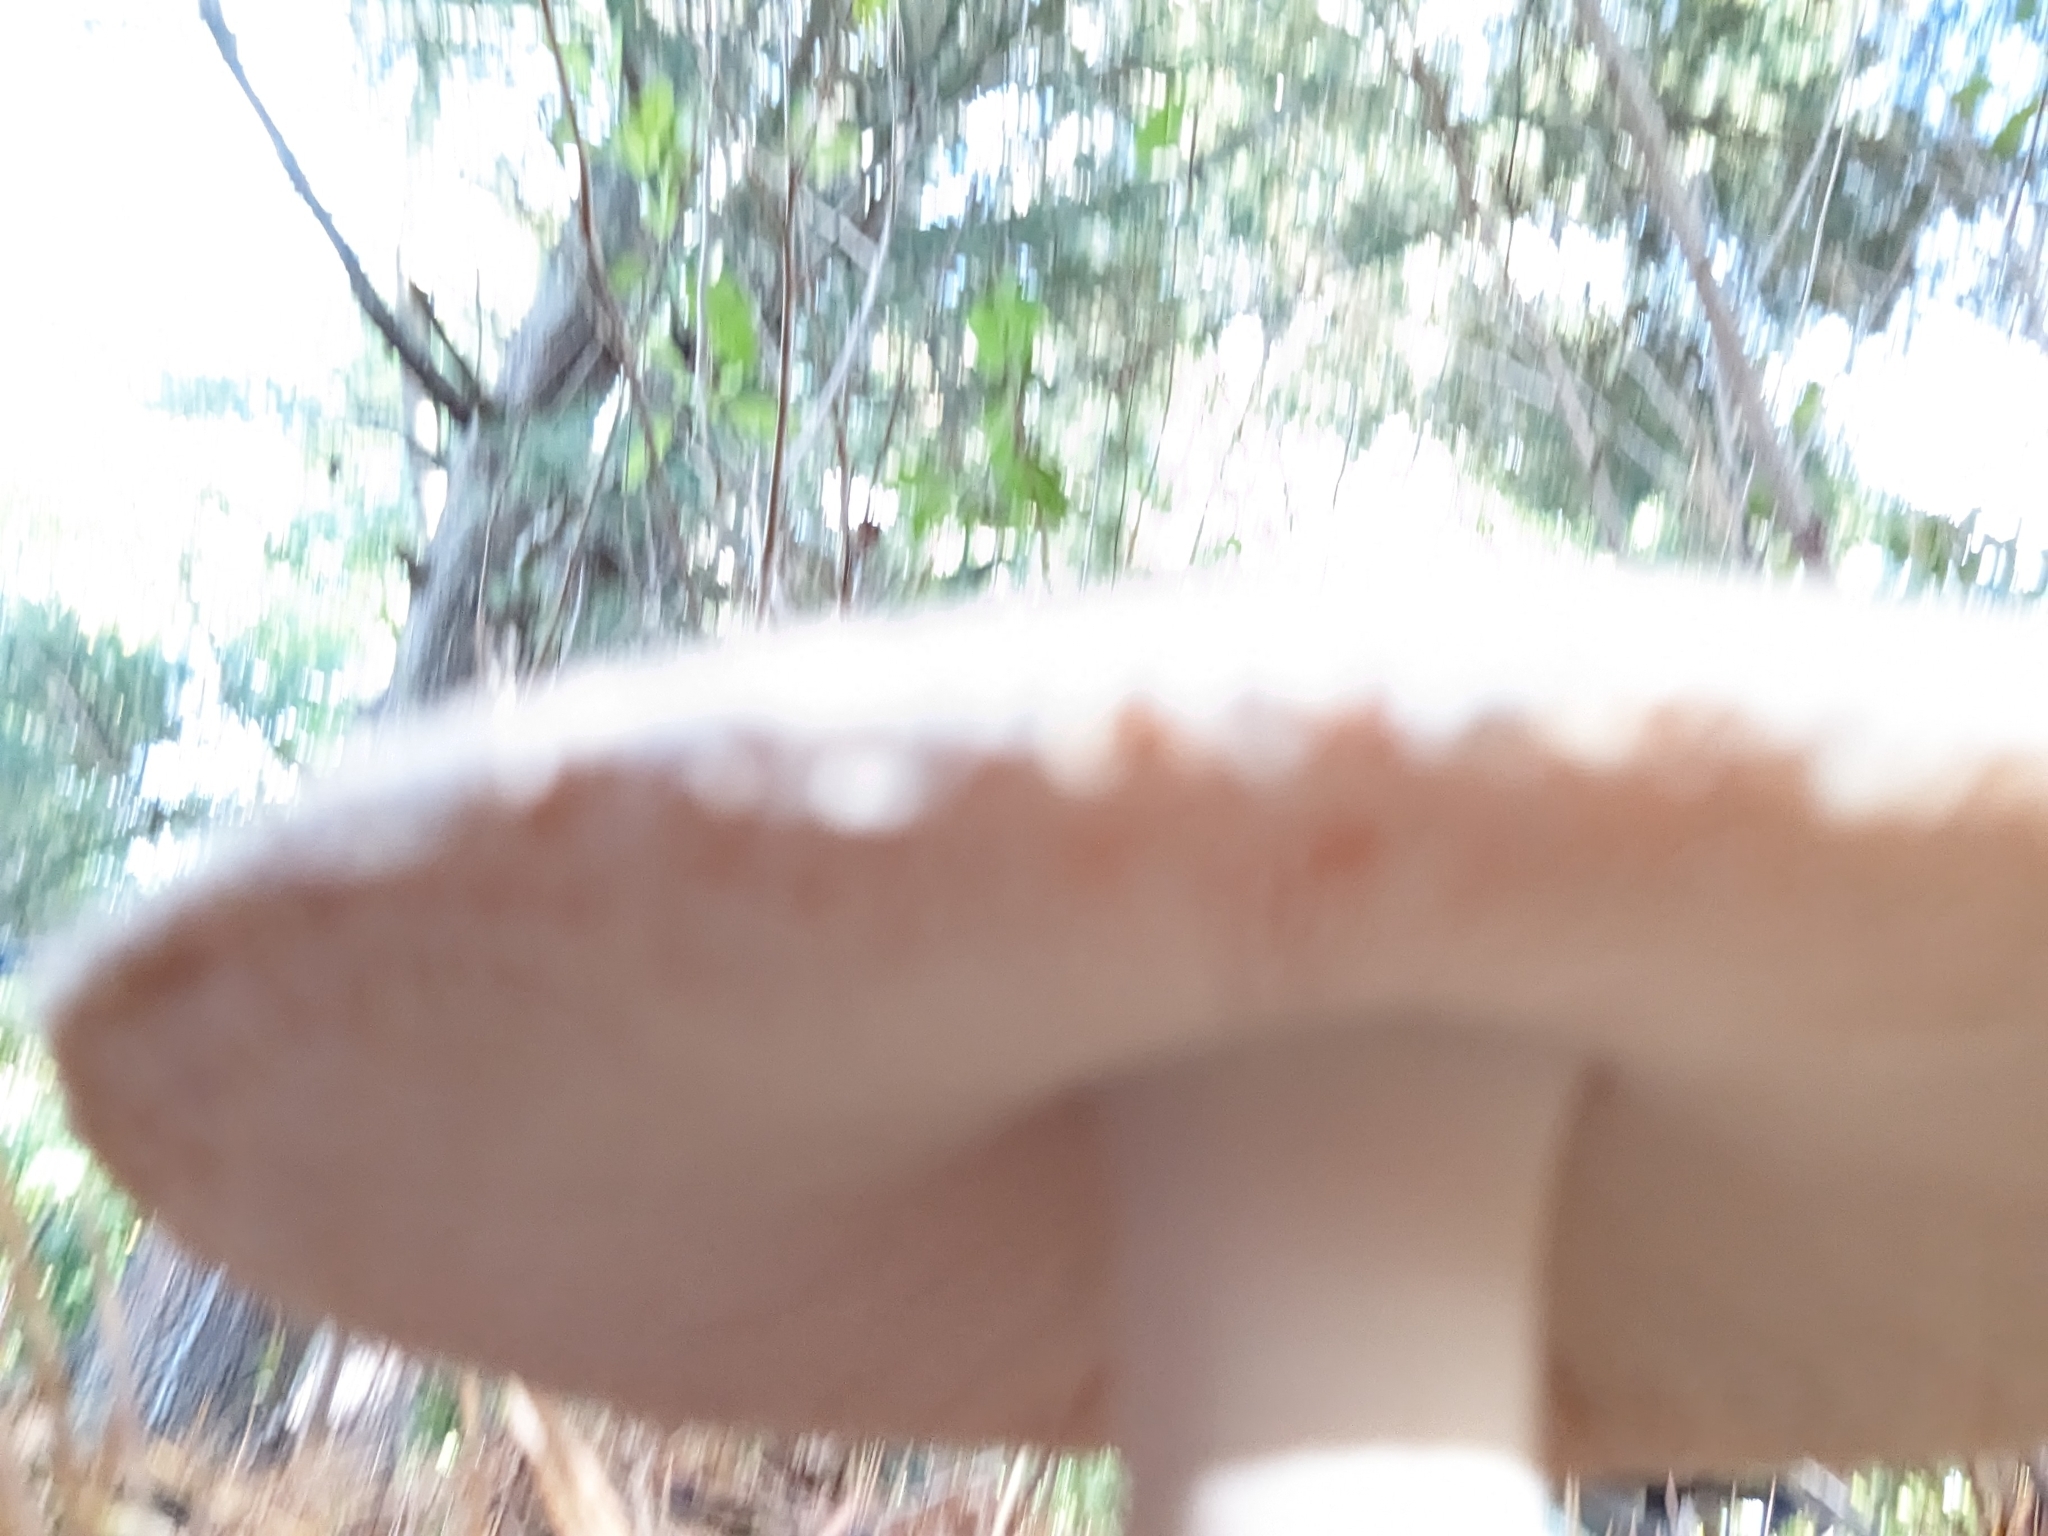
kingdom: Fungi
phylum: Basidiomycota
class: Agaricomycetes
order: Agaricales
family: Amanitaceae
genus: Amanita
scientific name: Amanita crenulata
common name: Poison champagne amanita
